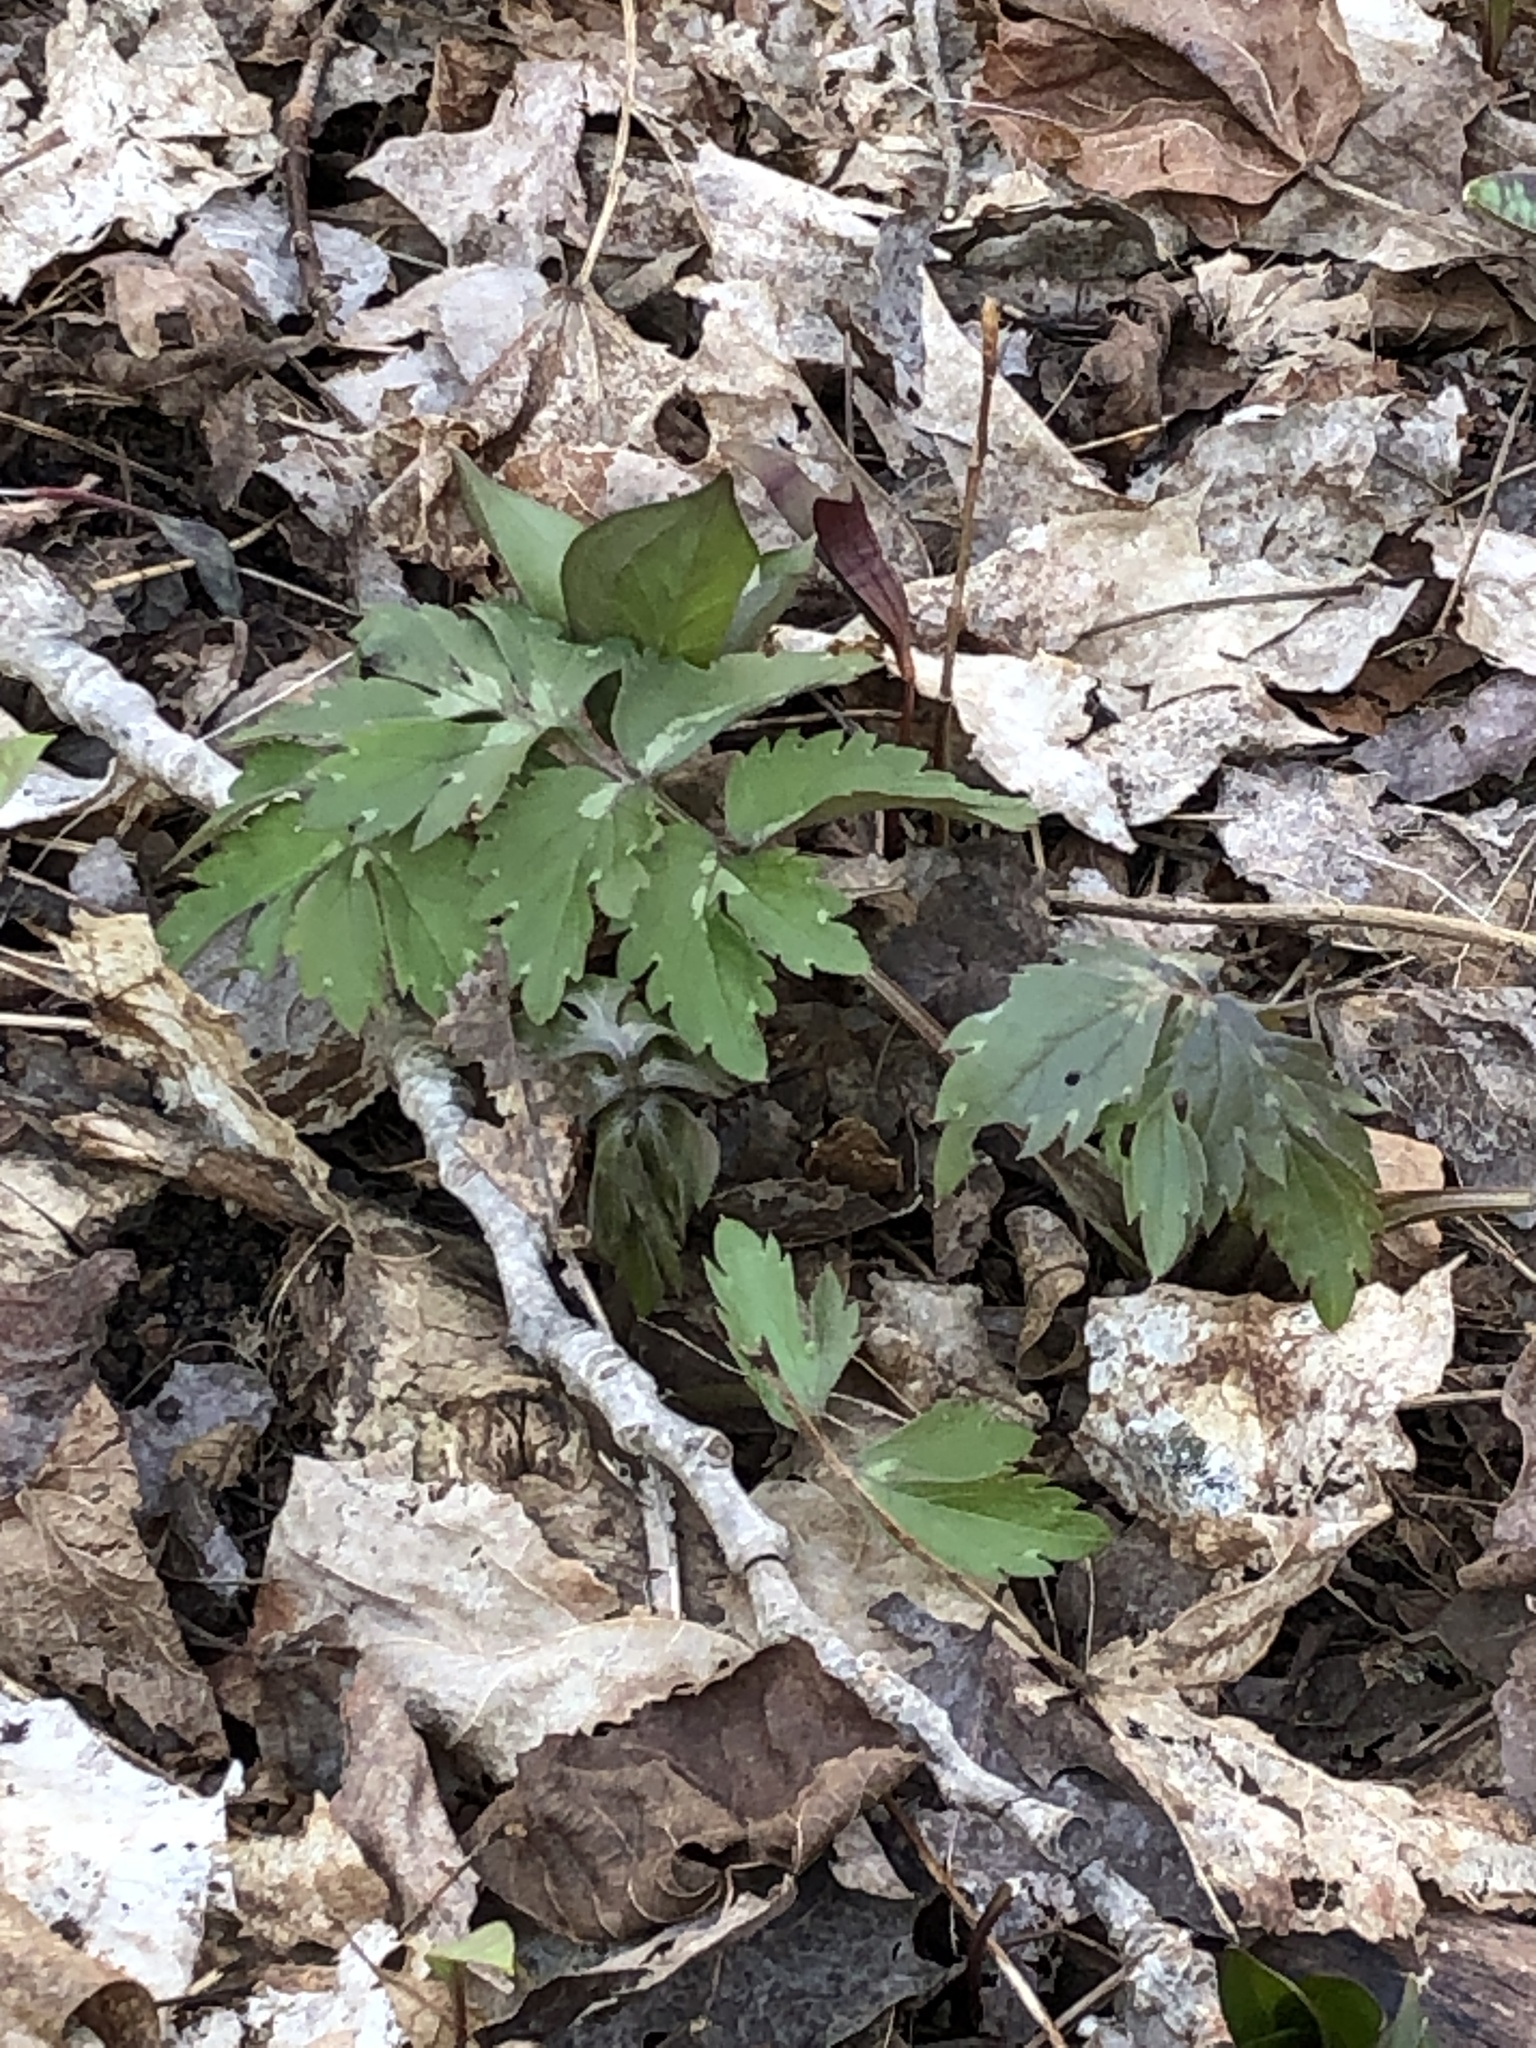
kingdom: Plantae
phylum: Tracheophyta
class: Magnoliopsida
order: Boraginales
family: Hydrophyllaceae
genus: Hydrophyllum
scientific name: Hydrophyllum virginianum
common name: Virginia waterleaf
